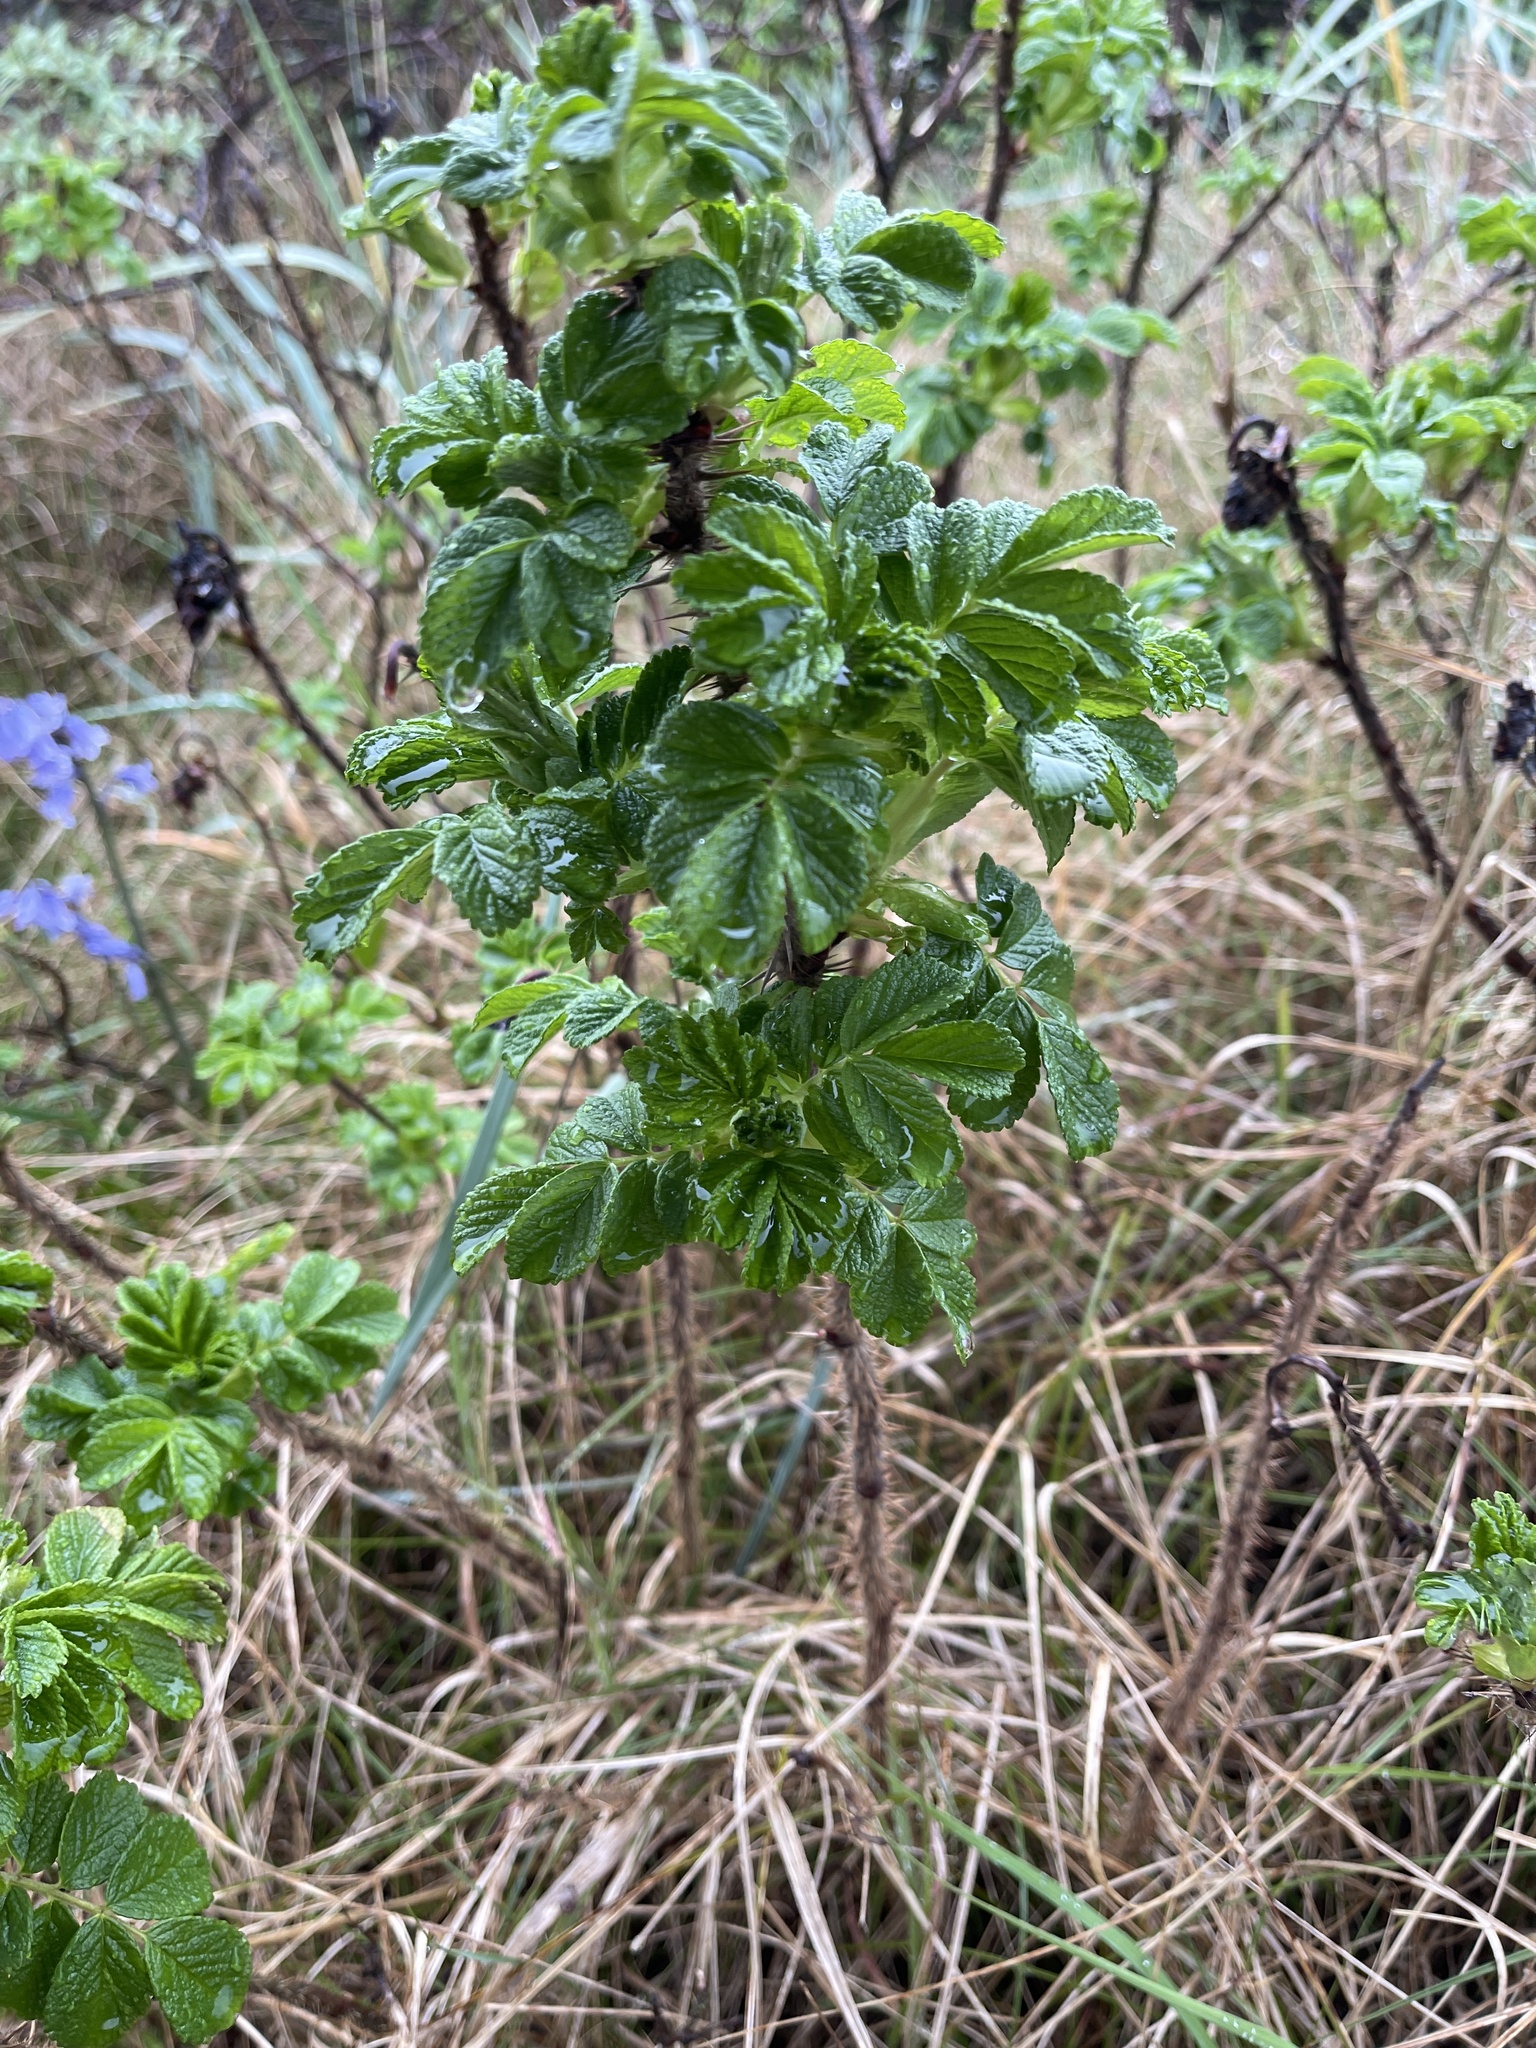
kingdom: Plantae
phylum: Tracheophyta
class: Magnoliopsida
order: Rosales
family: Rosaceae
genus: Rosa
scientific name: Rosa rugosa
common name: Japanese rose
